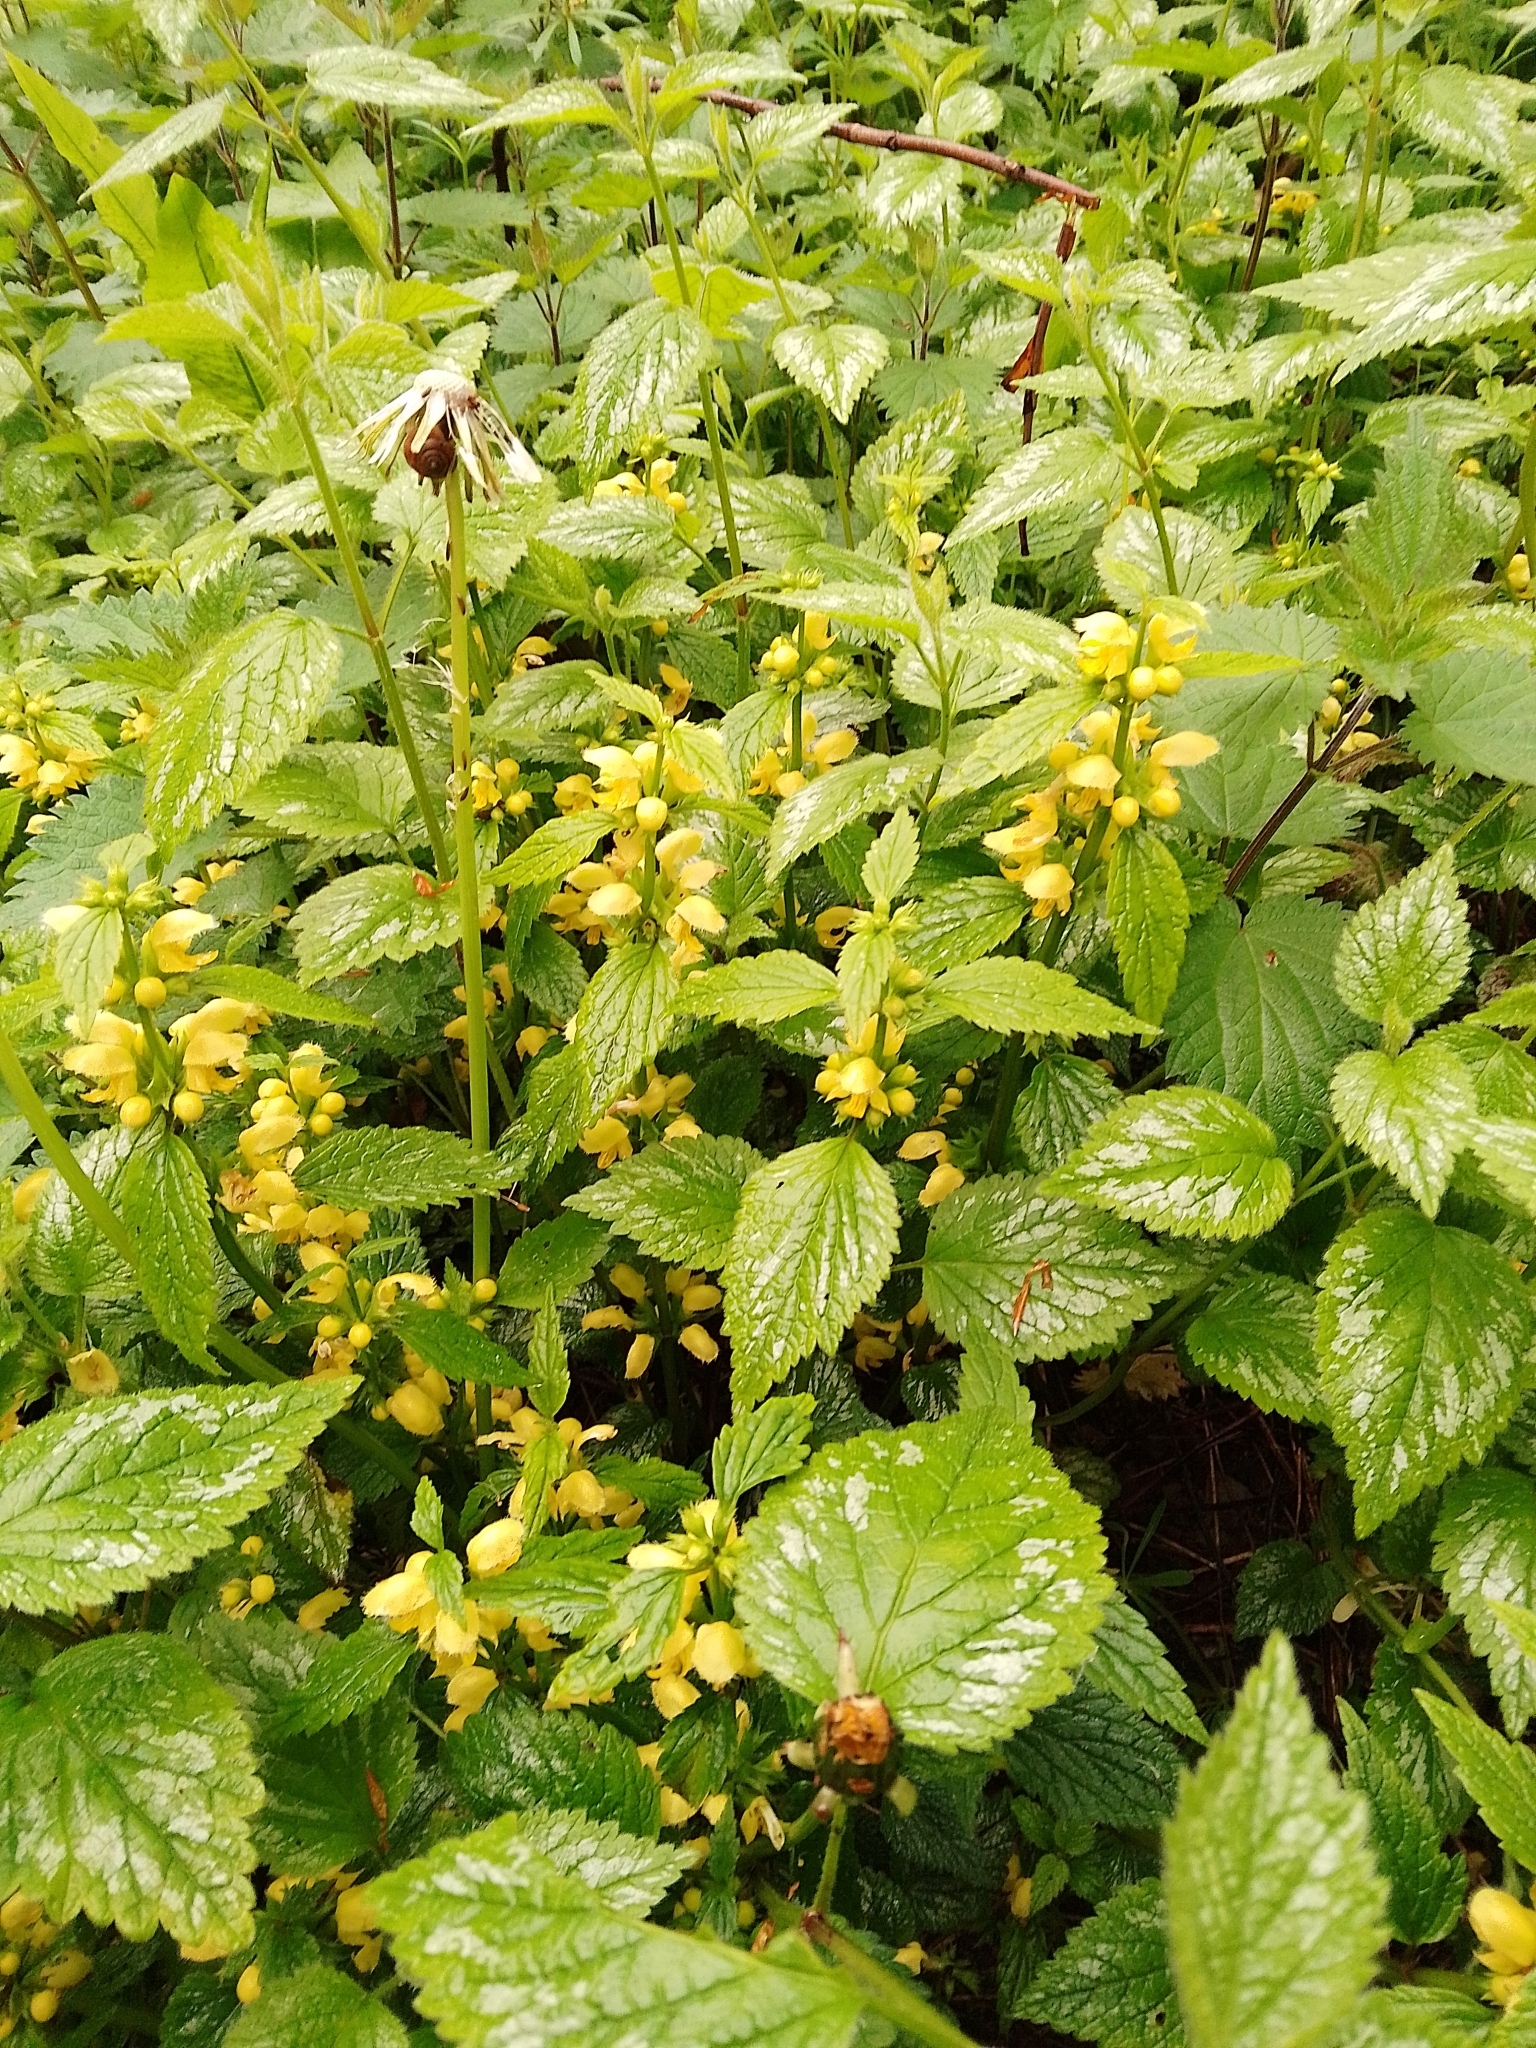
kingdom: Plantae
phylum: Tracheophyta
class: Magnoliopsida
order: Lamiales
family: Lamiaceae
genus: Lamium
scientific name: Lamium galeobdolon
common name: Yellow archangel
